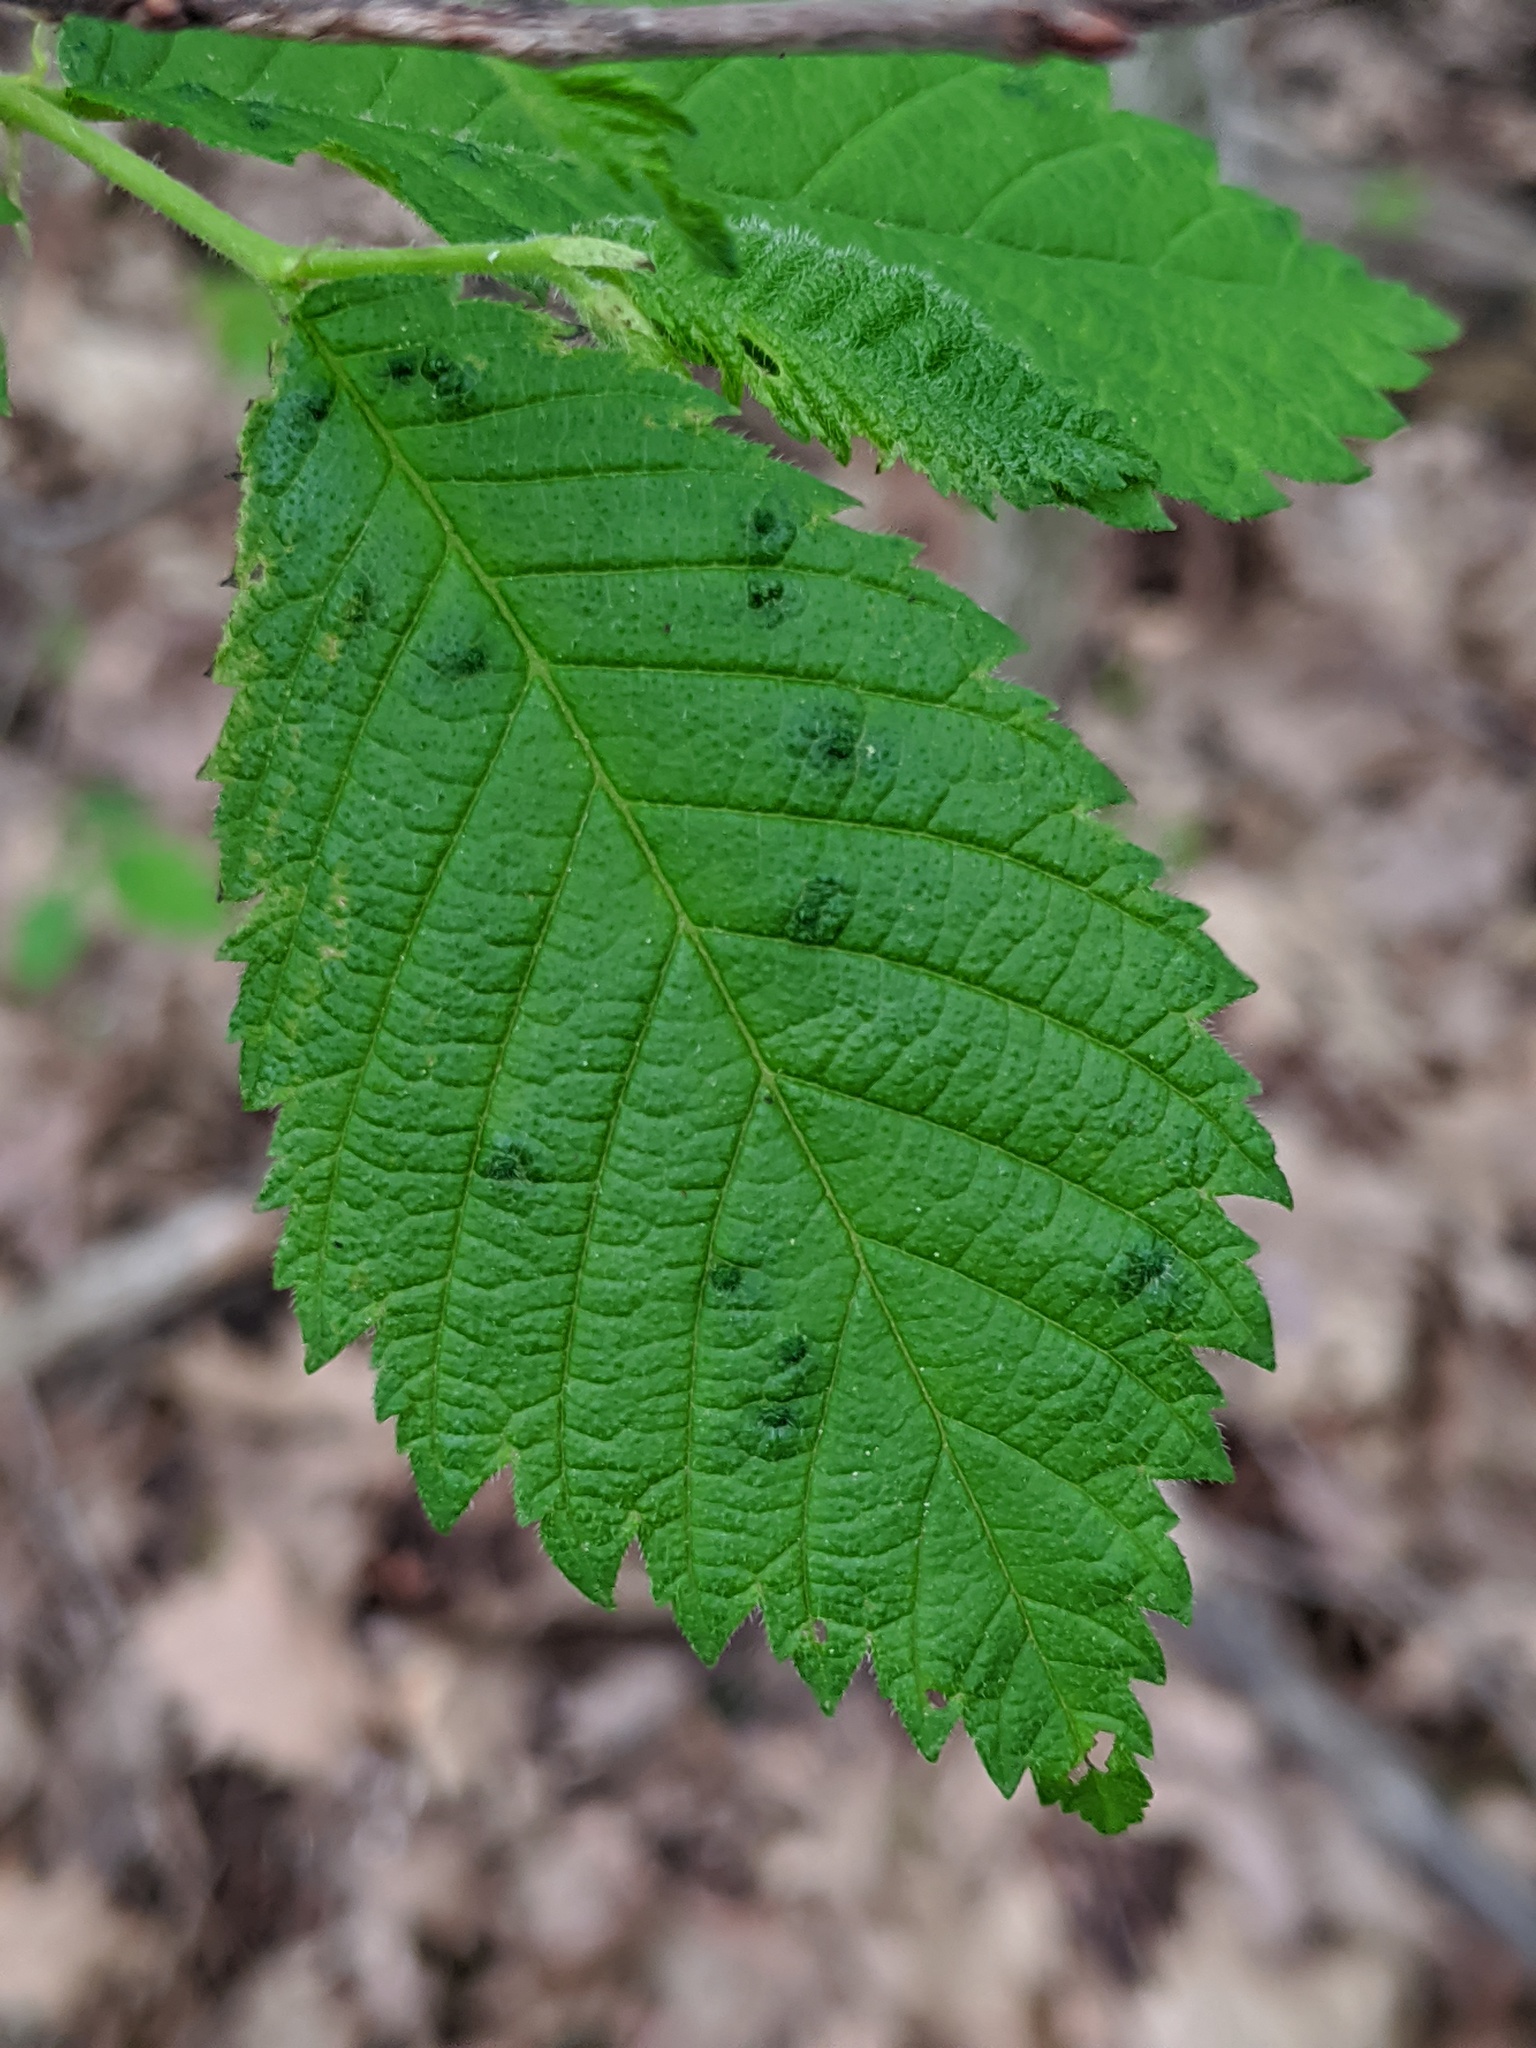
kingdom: Animalia
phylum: Arthropoda
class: Arachnida
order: Trombidiformes
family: Eriophyidae
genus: Aceria
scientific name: Aceria brevipunctata
